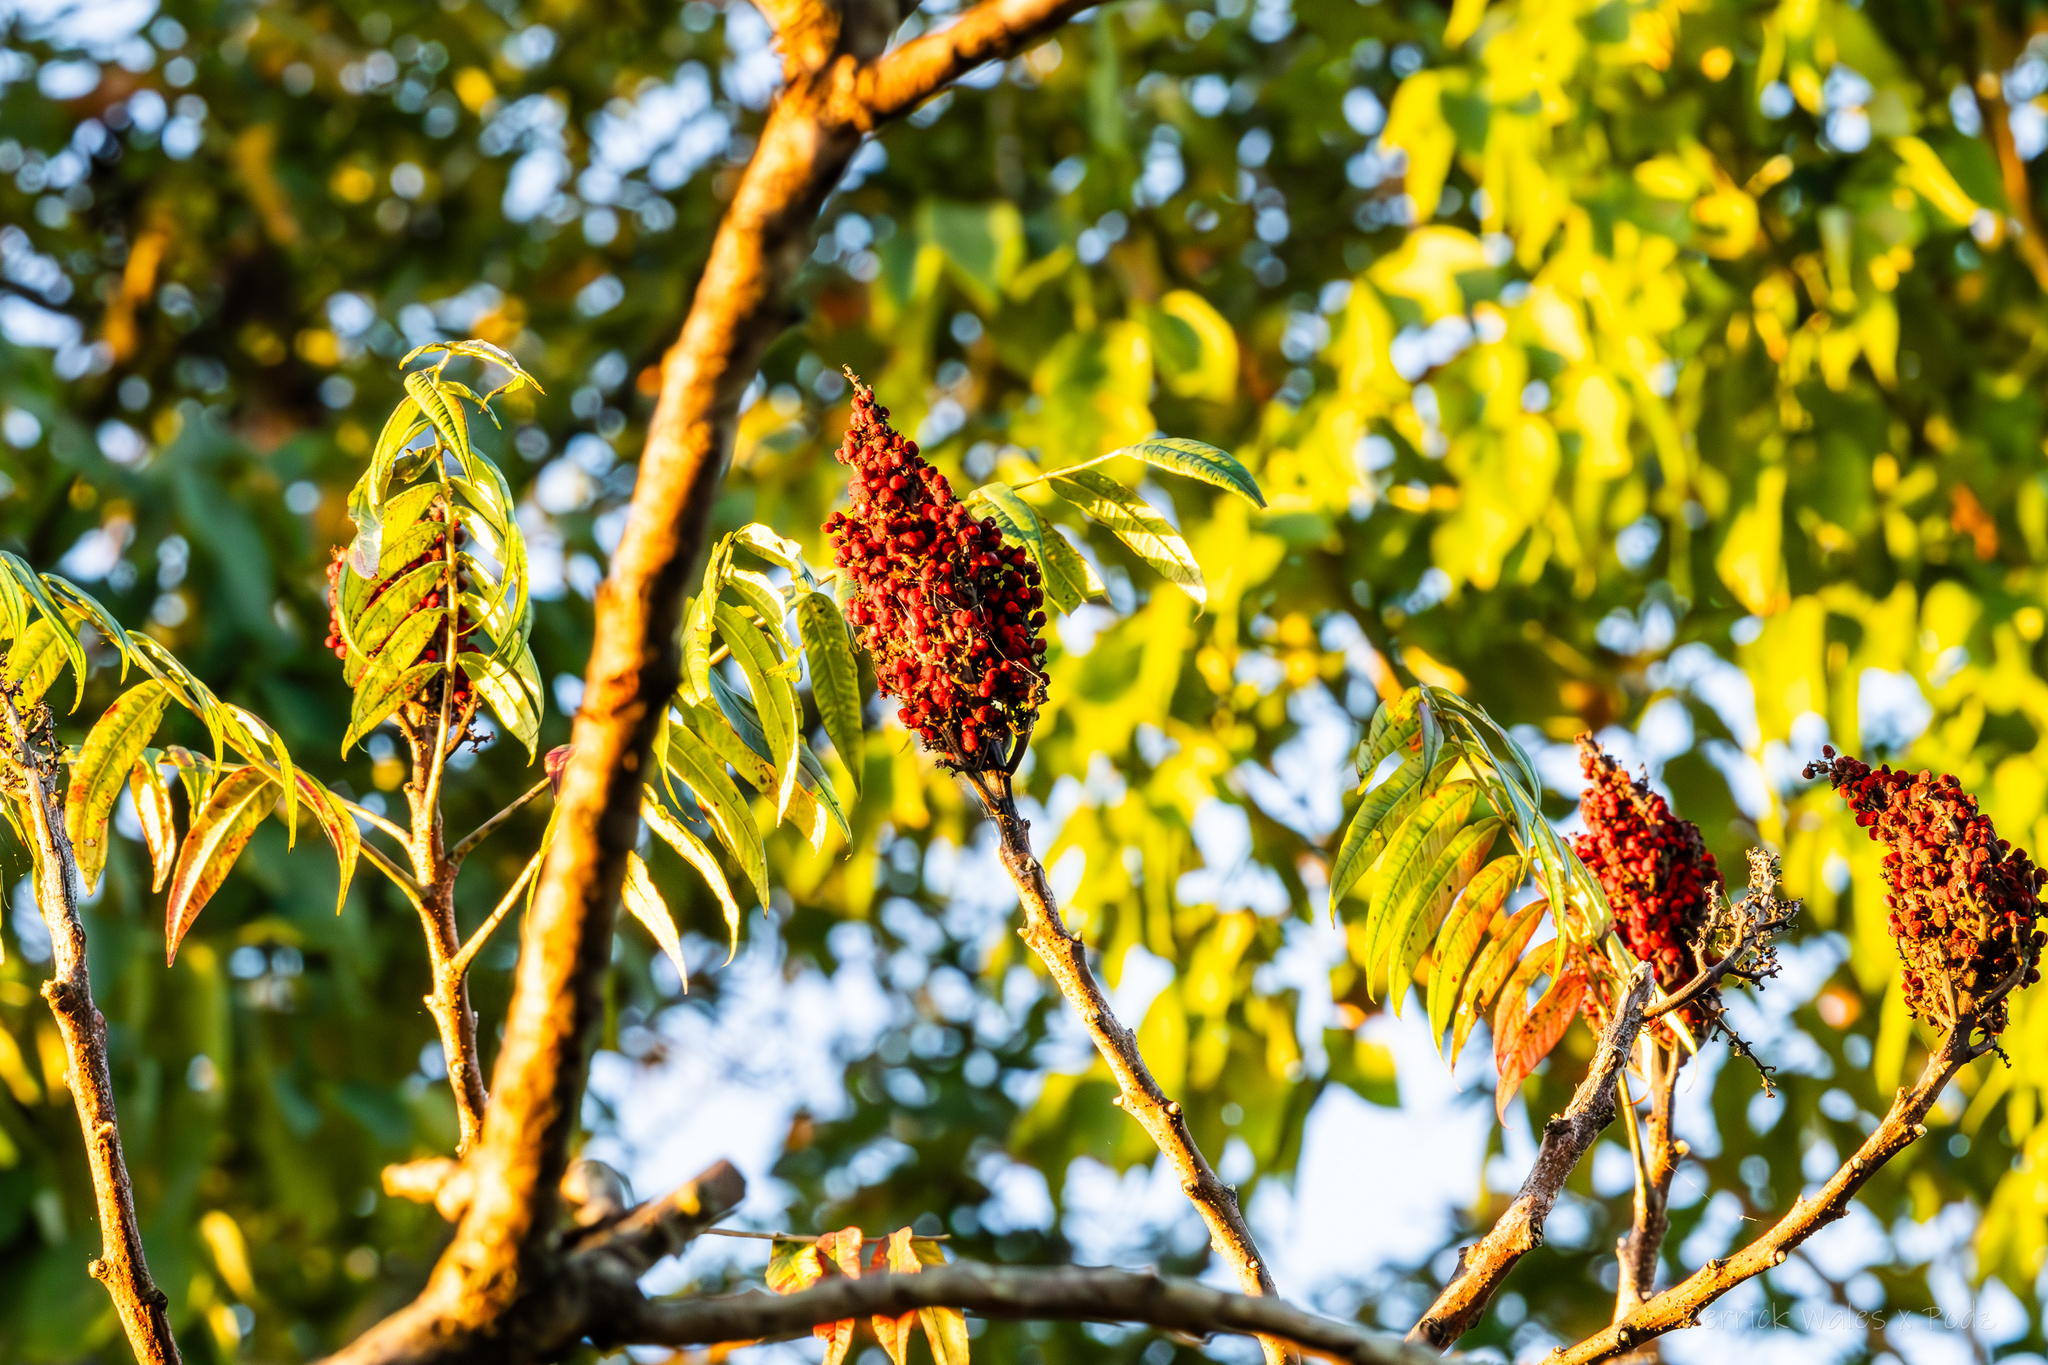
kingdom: Plantae
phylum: Tracheophyta
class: Magnoliopsida
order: Sapindales
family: Anacardiaceae
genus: Rhus
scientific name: Rhus glabra
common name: Scarlet sumac
